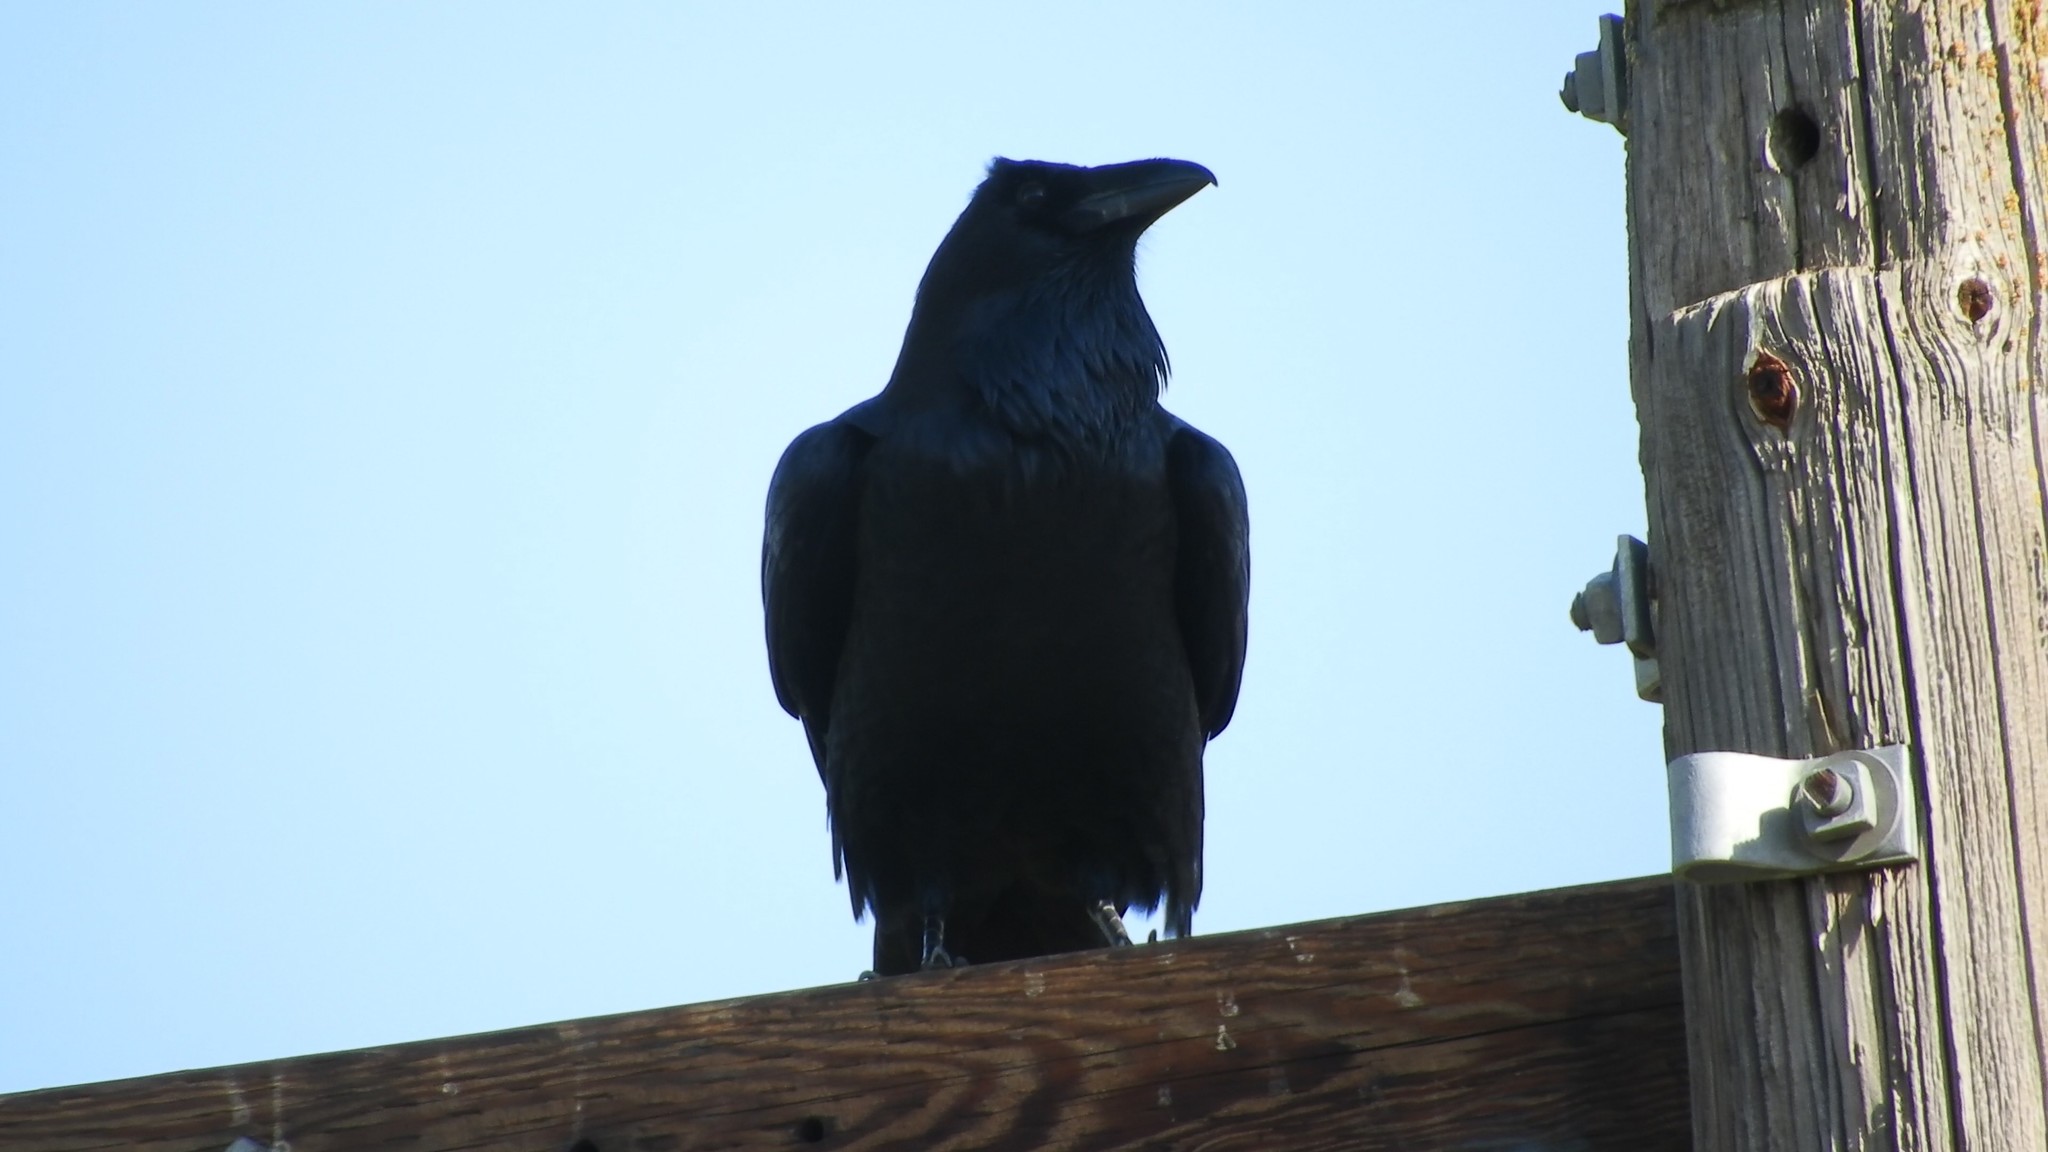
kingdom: Animalia
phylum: Chordata
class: Aves
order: Passeriformes
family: Corvidae
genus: Corvus
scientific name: Corvus corax
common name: Common raven
